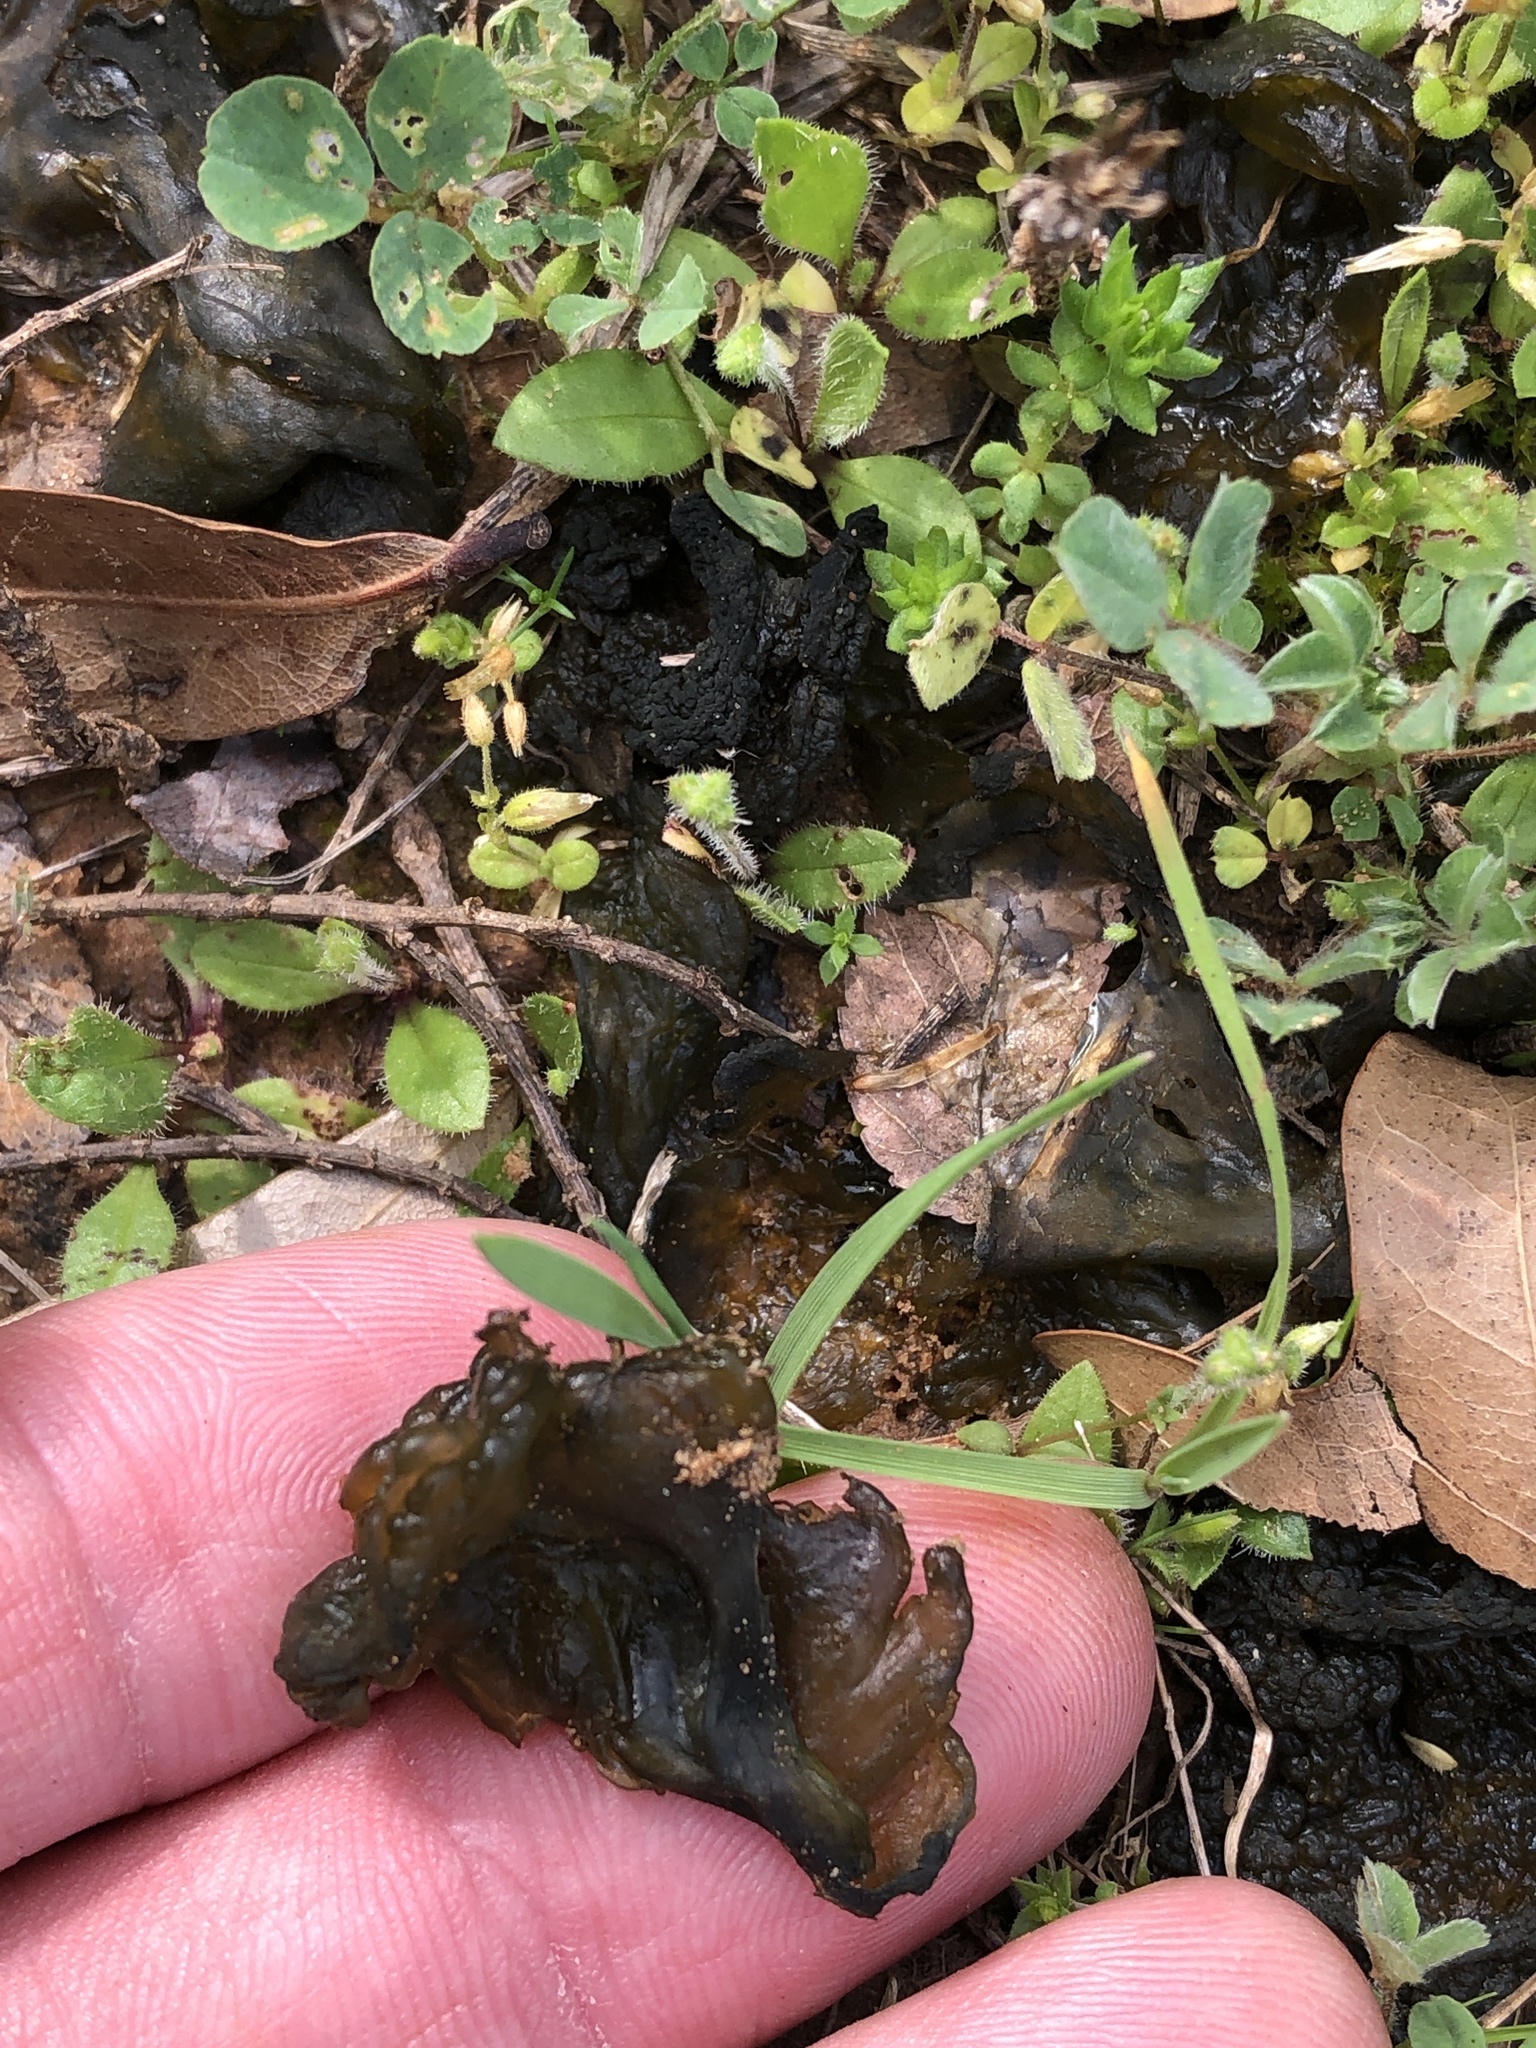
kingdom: Bacteria
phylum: Cyanobacteria
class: Cyanobacteriia
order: Cyanobacteriales
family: Nostocaceae
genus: Nostoc
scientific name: Nostoc commune
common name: Star jelly
